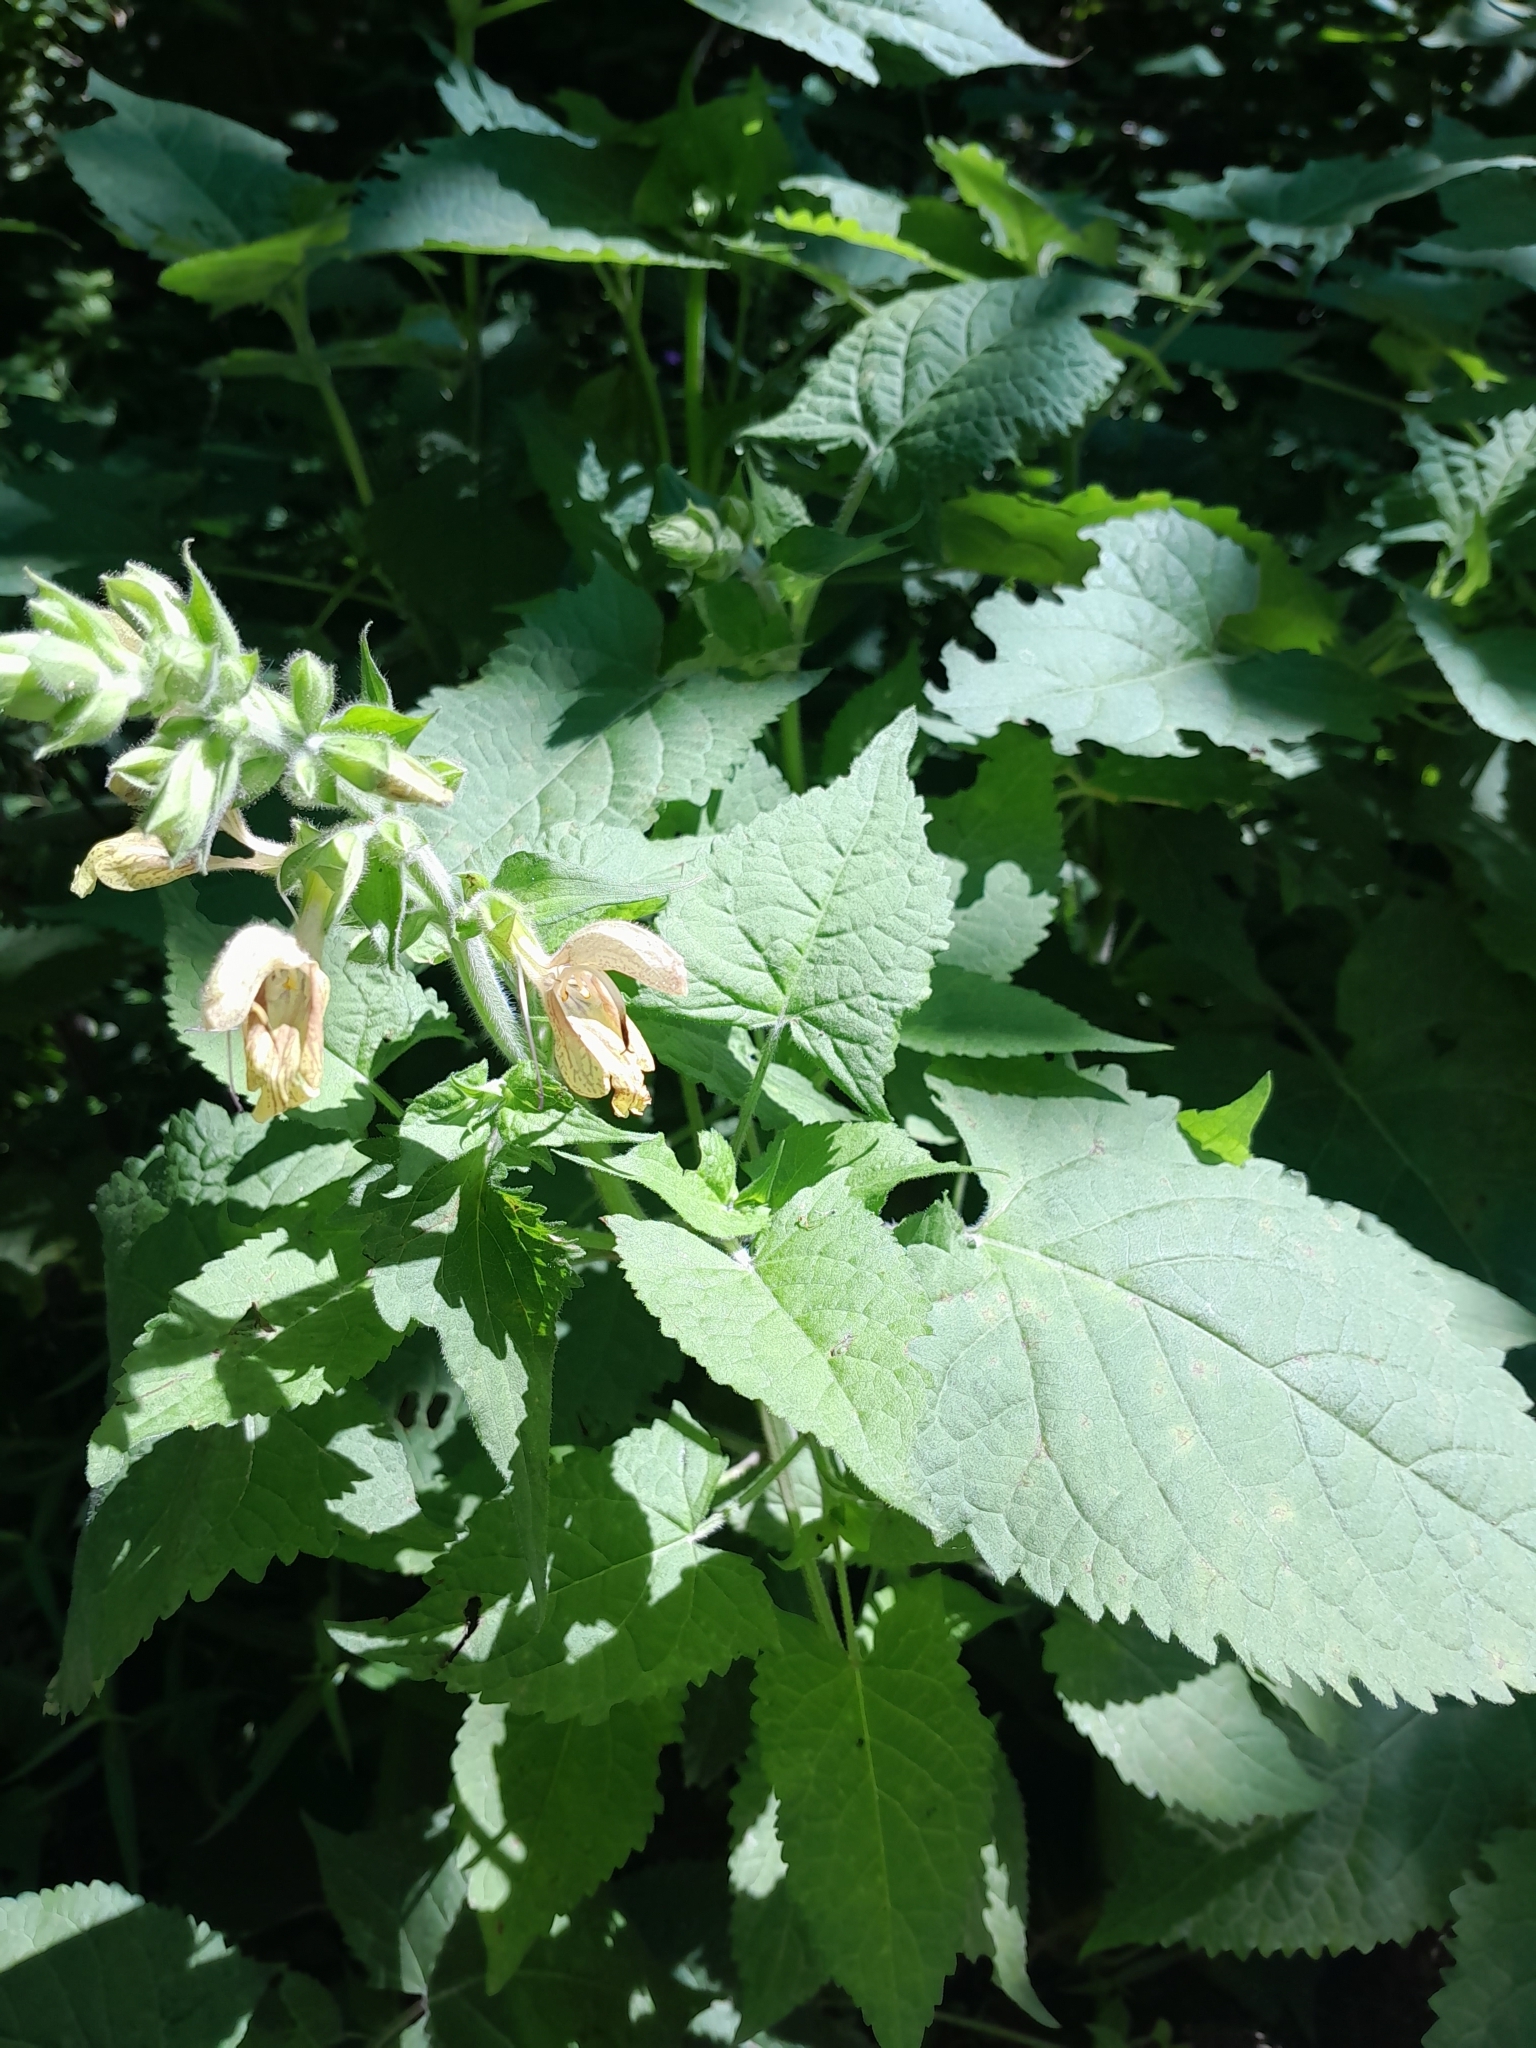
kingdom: Plantae
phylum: Tracheophyta
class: Magnoliopsida
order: Lamiales
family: Lamiaceae
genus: Salvia
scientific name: Salvia glutinosa
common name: Sticky clary
